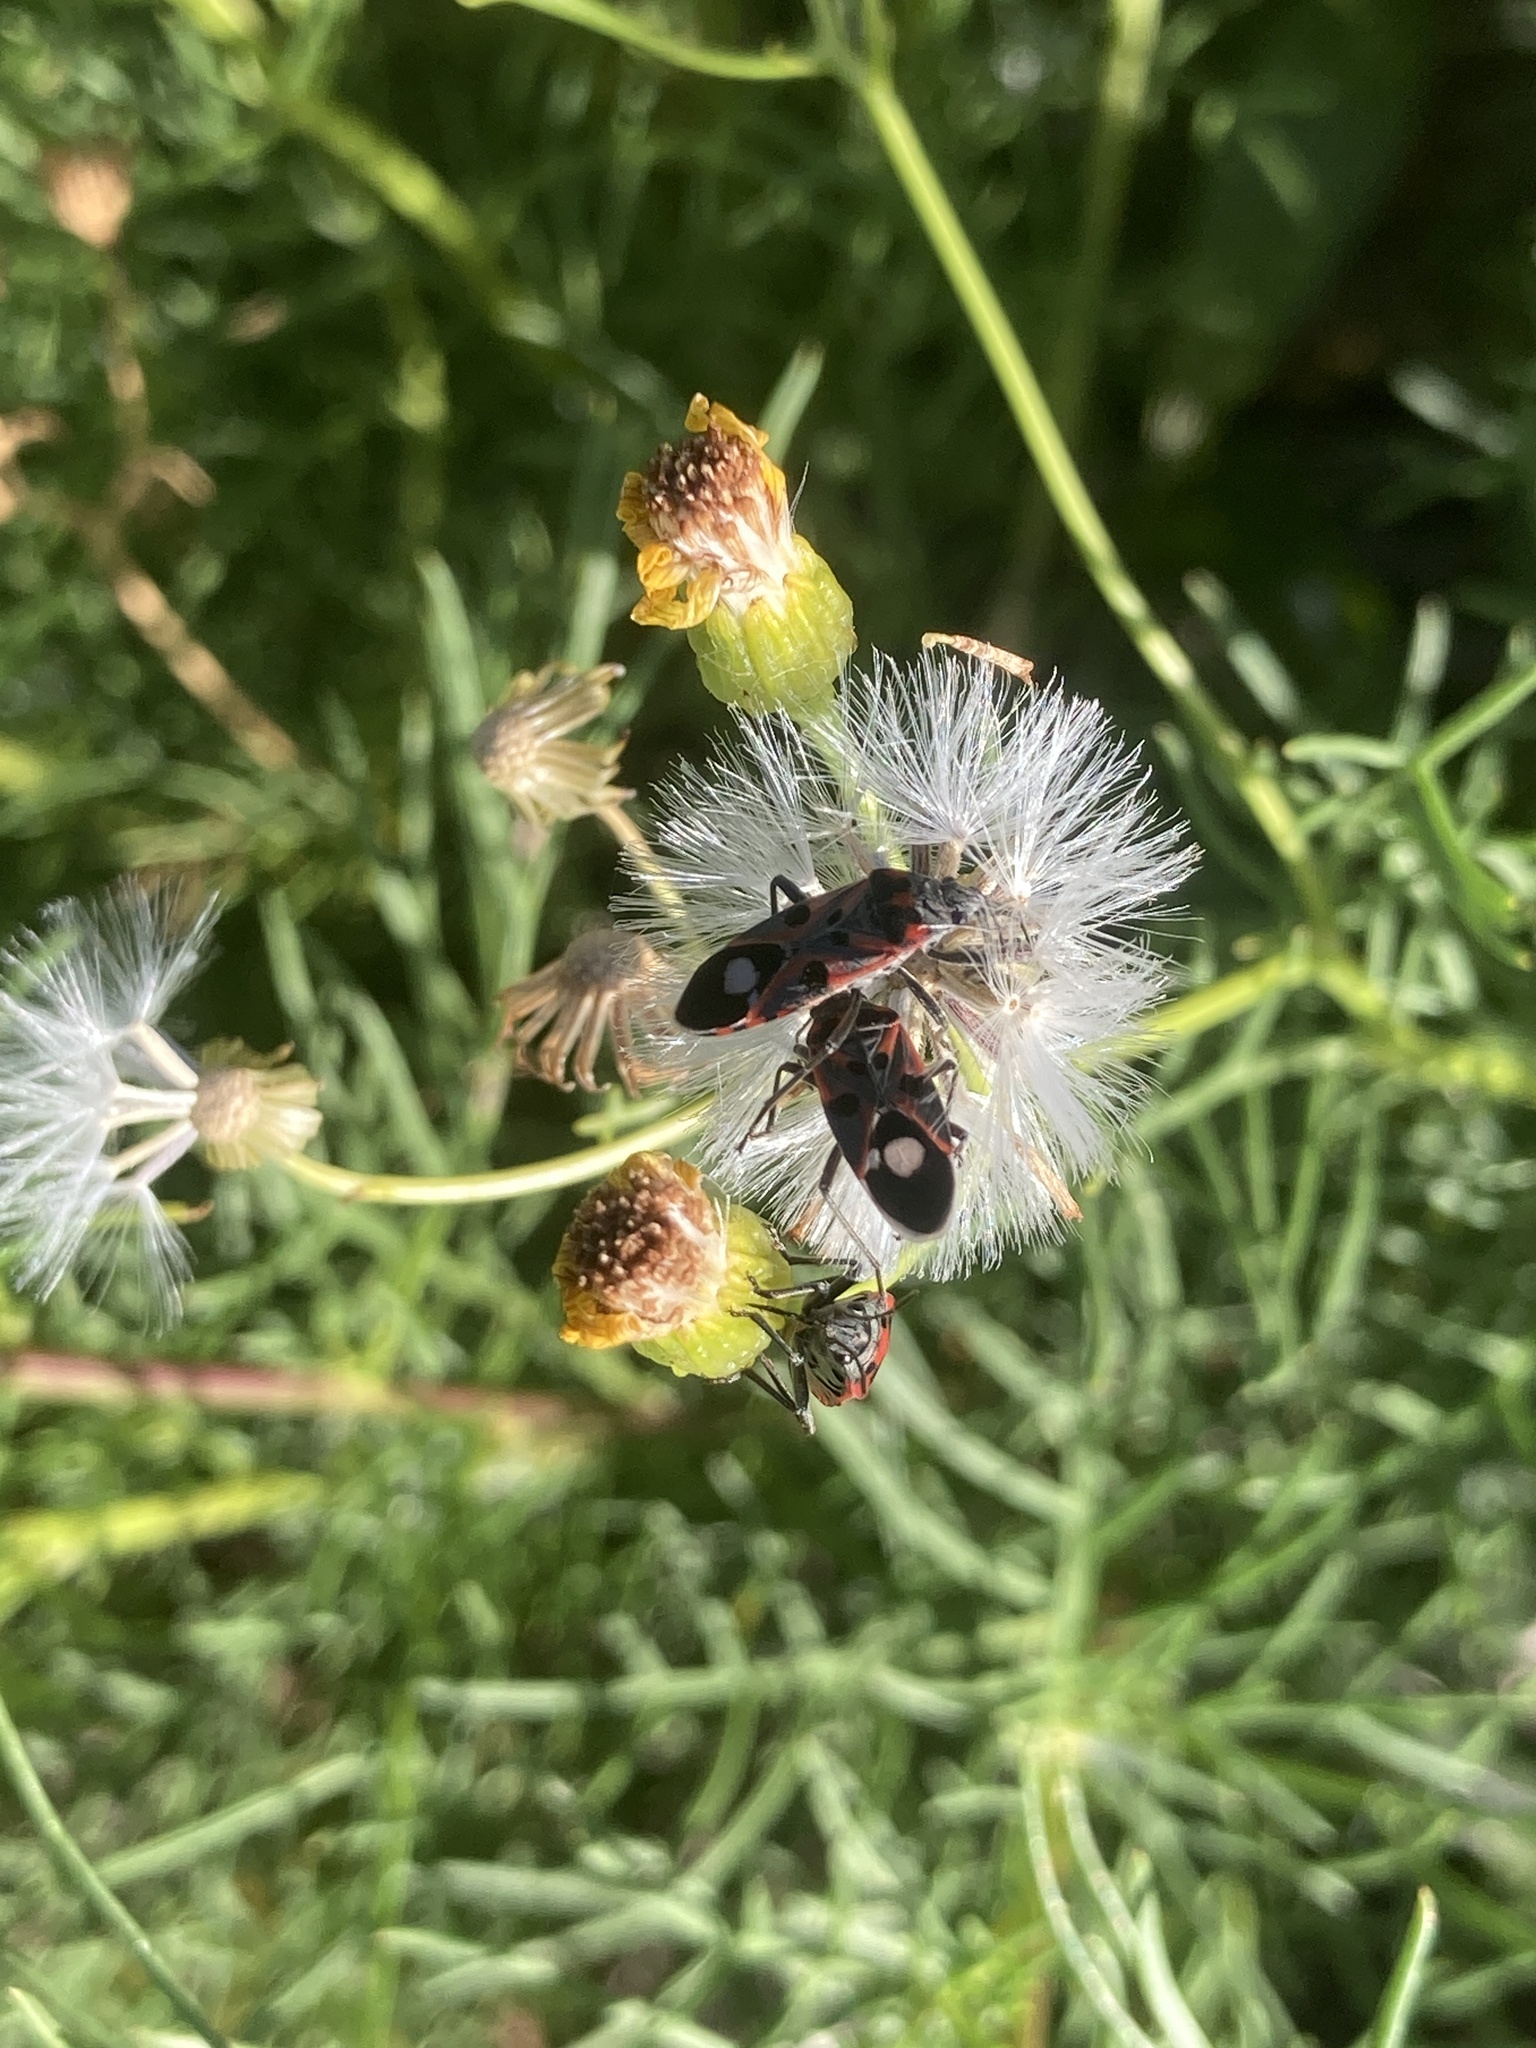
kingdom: Animalia
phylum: Arthropoda
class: Insecta
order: Hemiptera
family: Lygaeidae
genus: Lygaeus
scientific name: Lygaeus alboornatus
